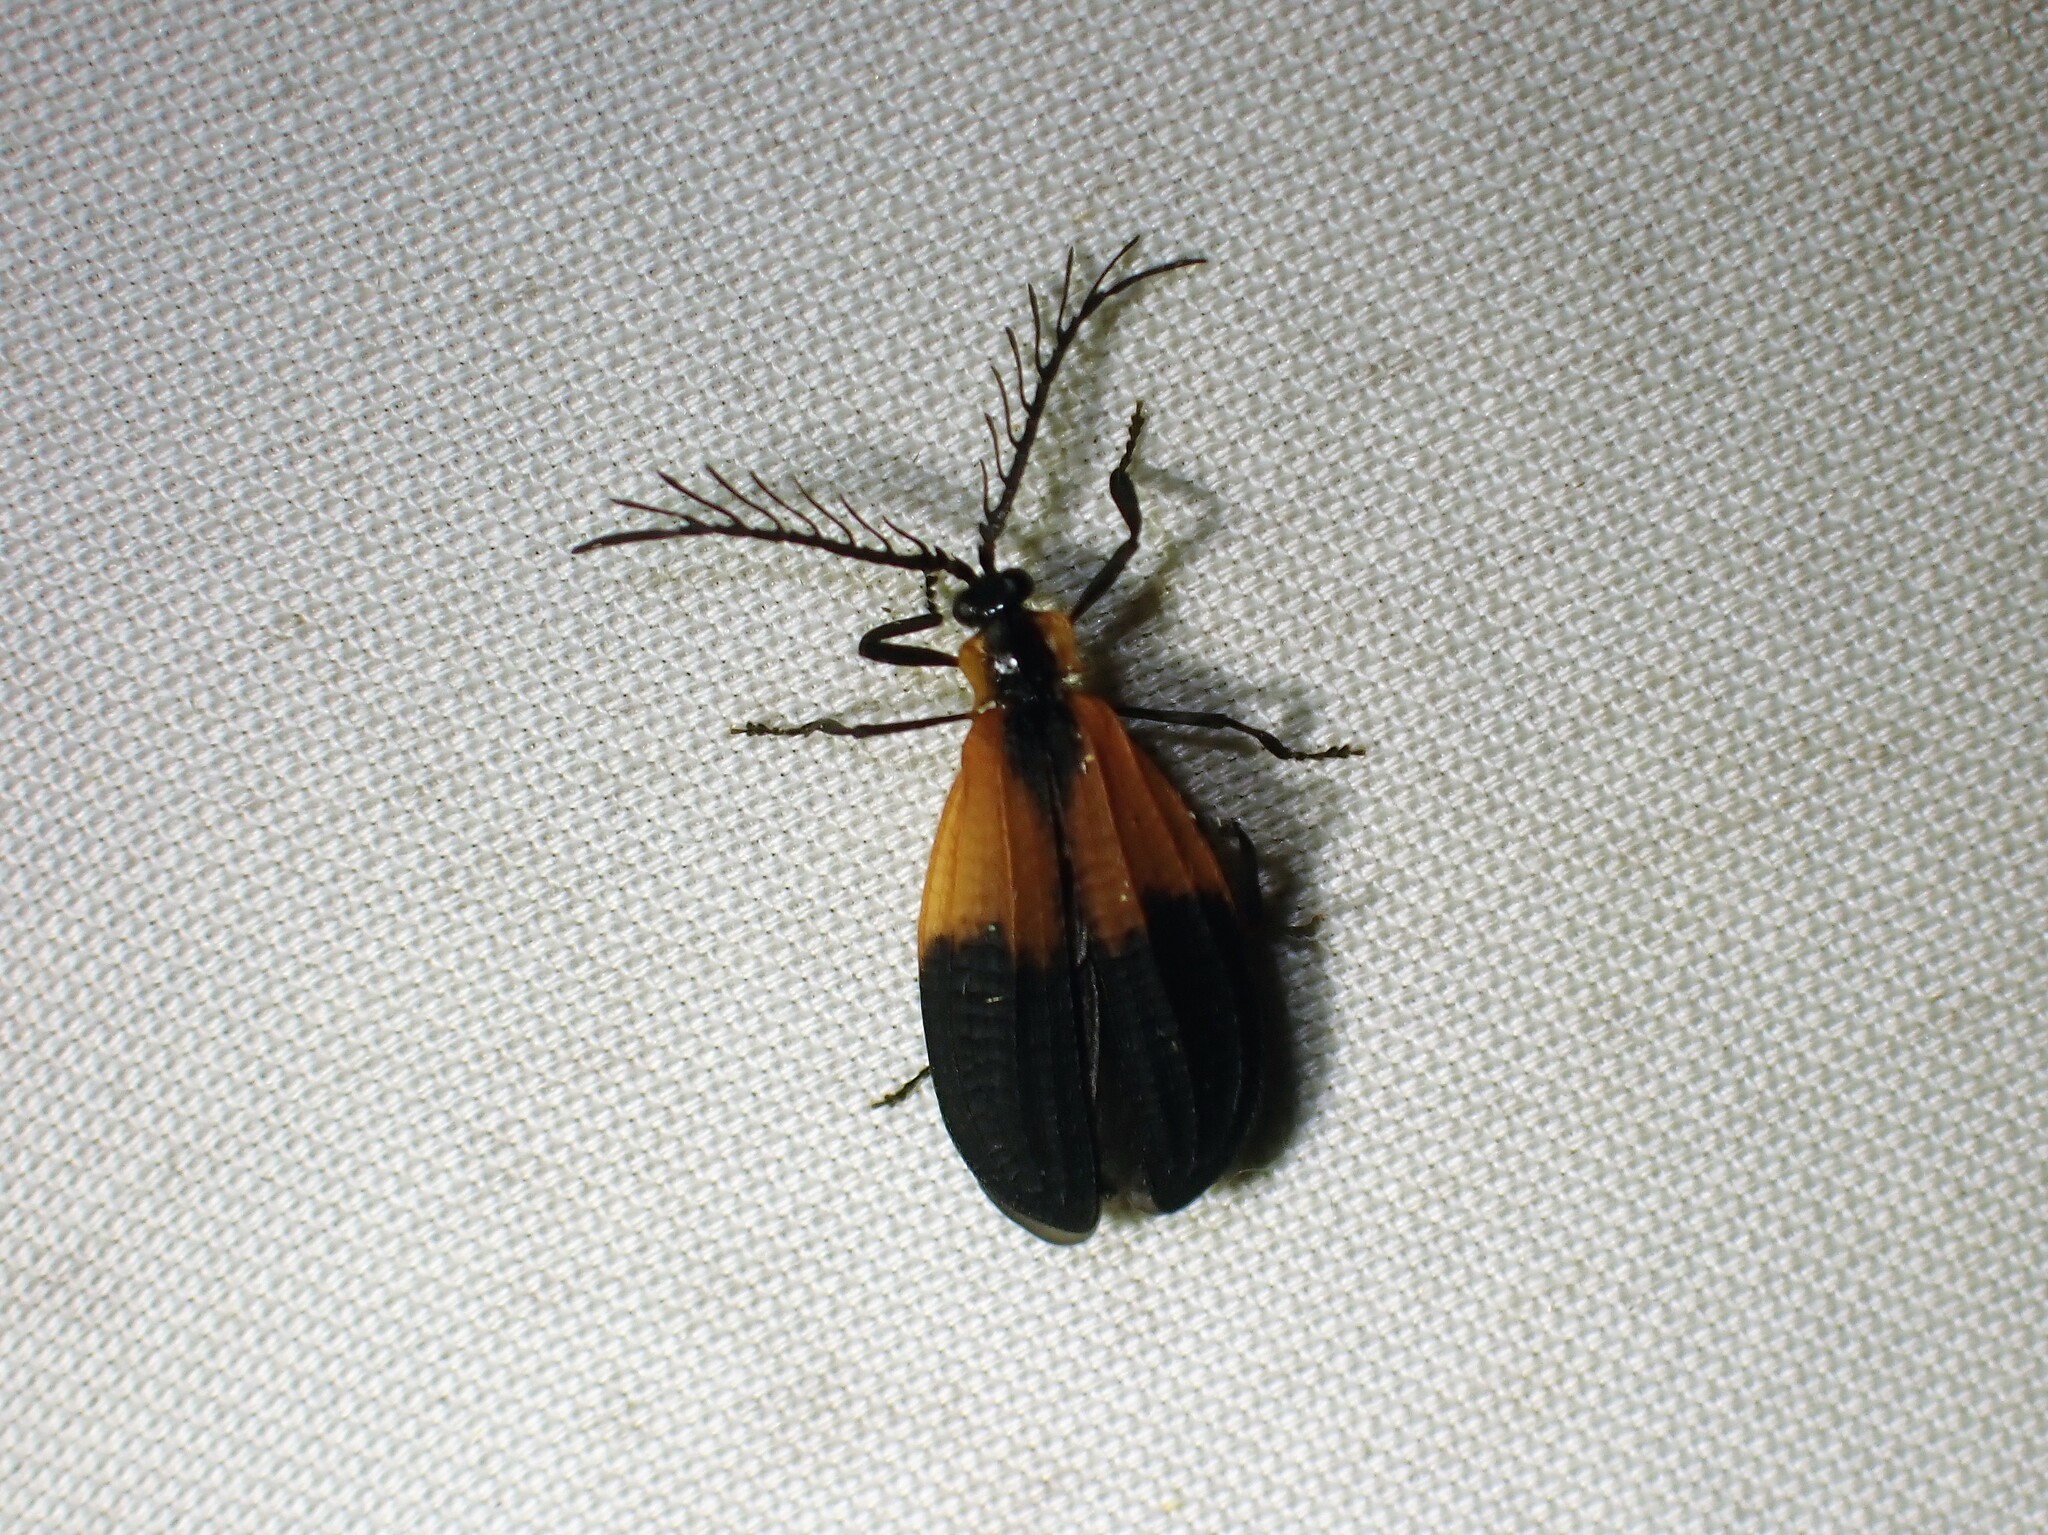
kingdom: Animalia
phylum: Arthropoda
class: Insecta
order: Coleoptera
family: Lycidae
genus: Caenia
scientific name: Caenia dimidiata
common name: Terminal net-winged beetle
